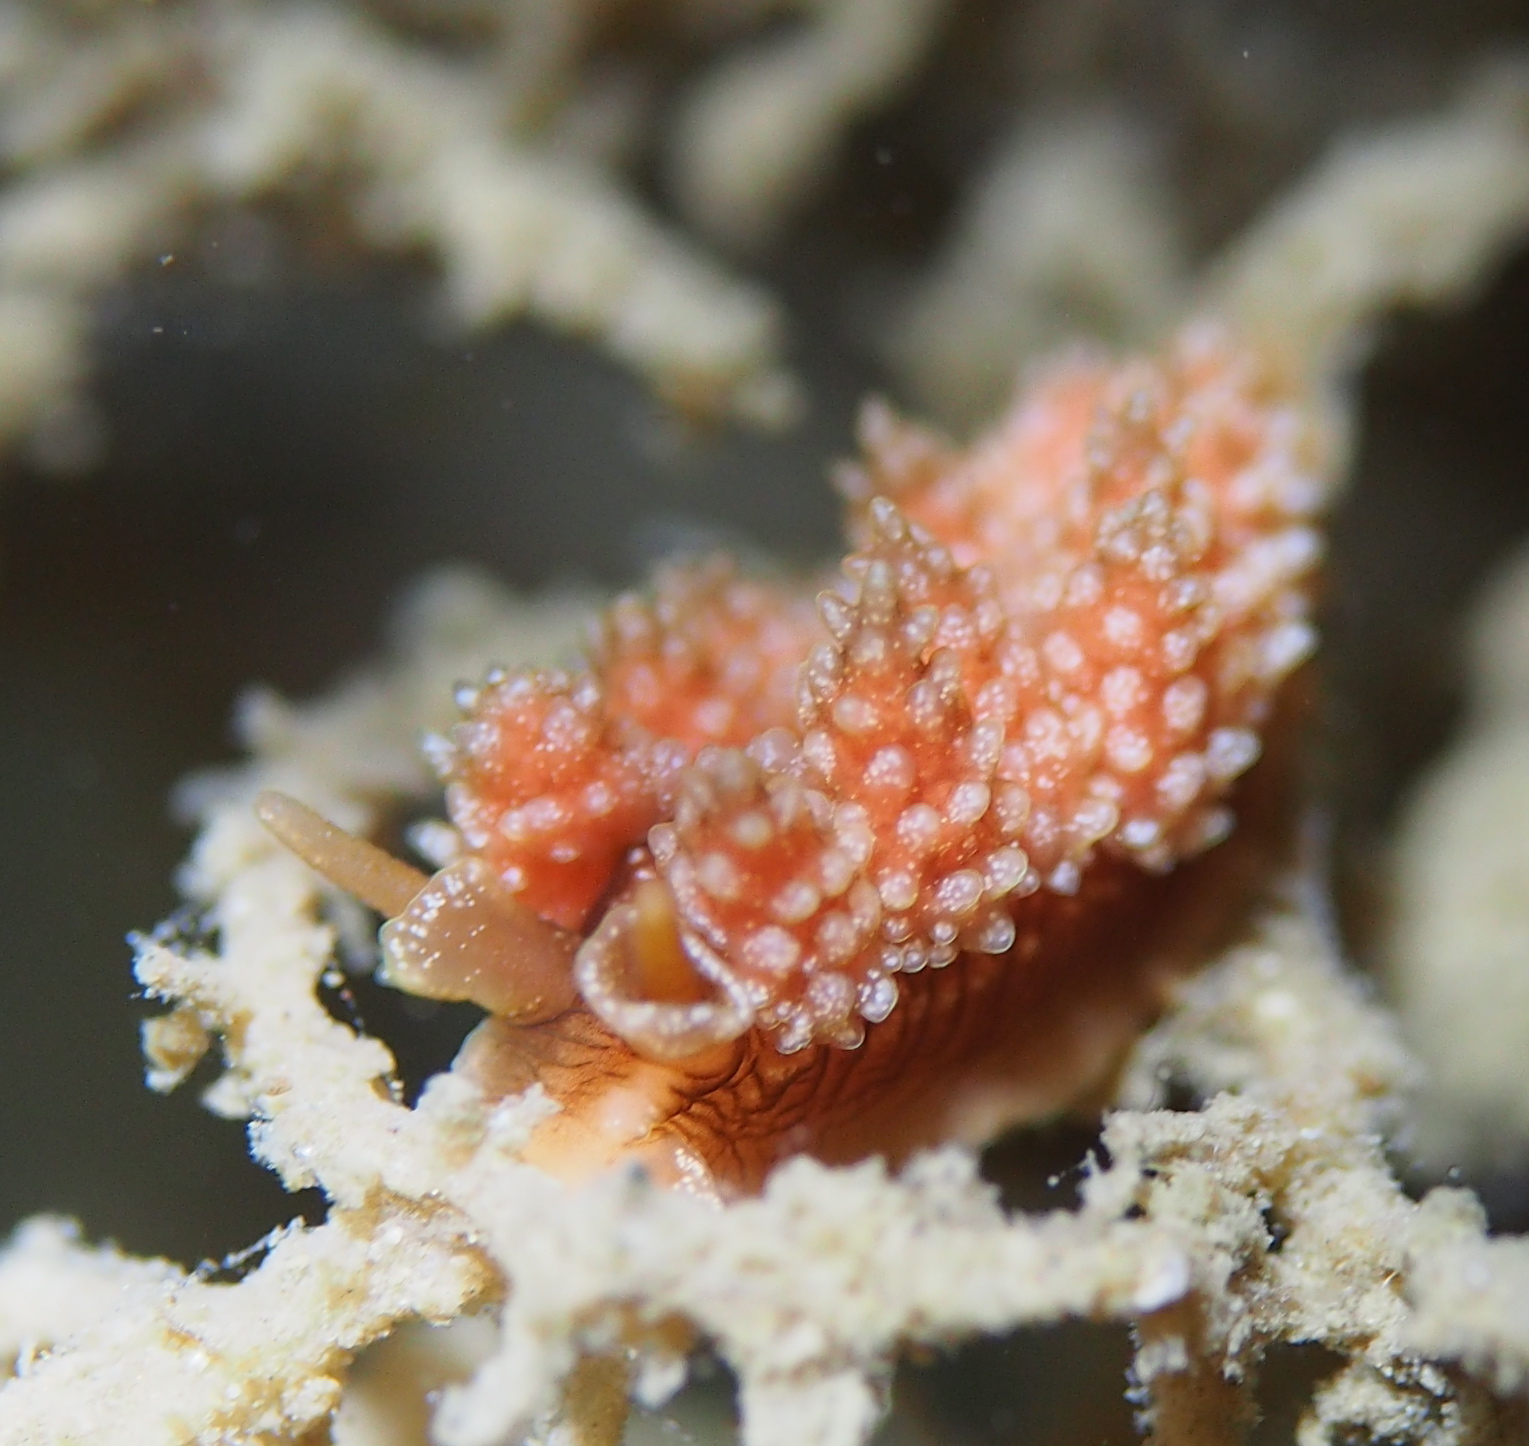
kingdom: Animalia
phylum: Mollusca
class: Gastropoda
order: Nudibranchia
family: Dotidae
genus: Doto
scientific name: Doto fragilis
